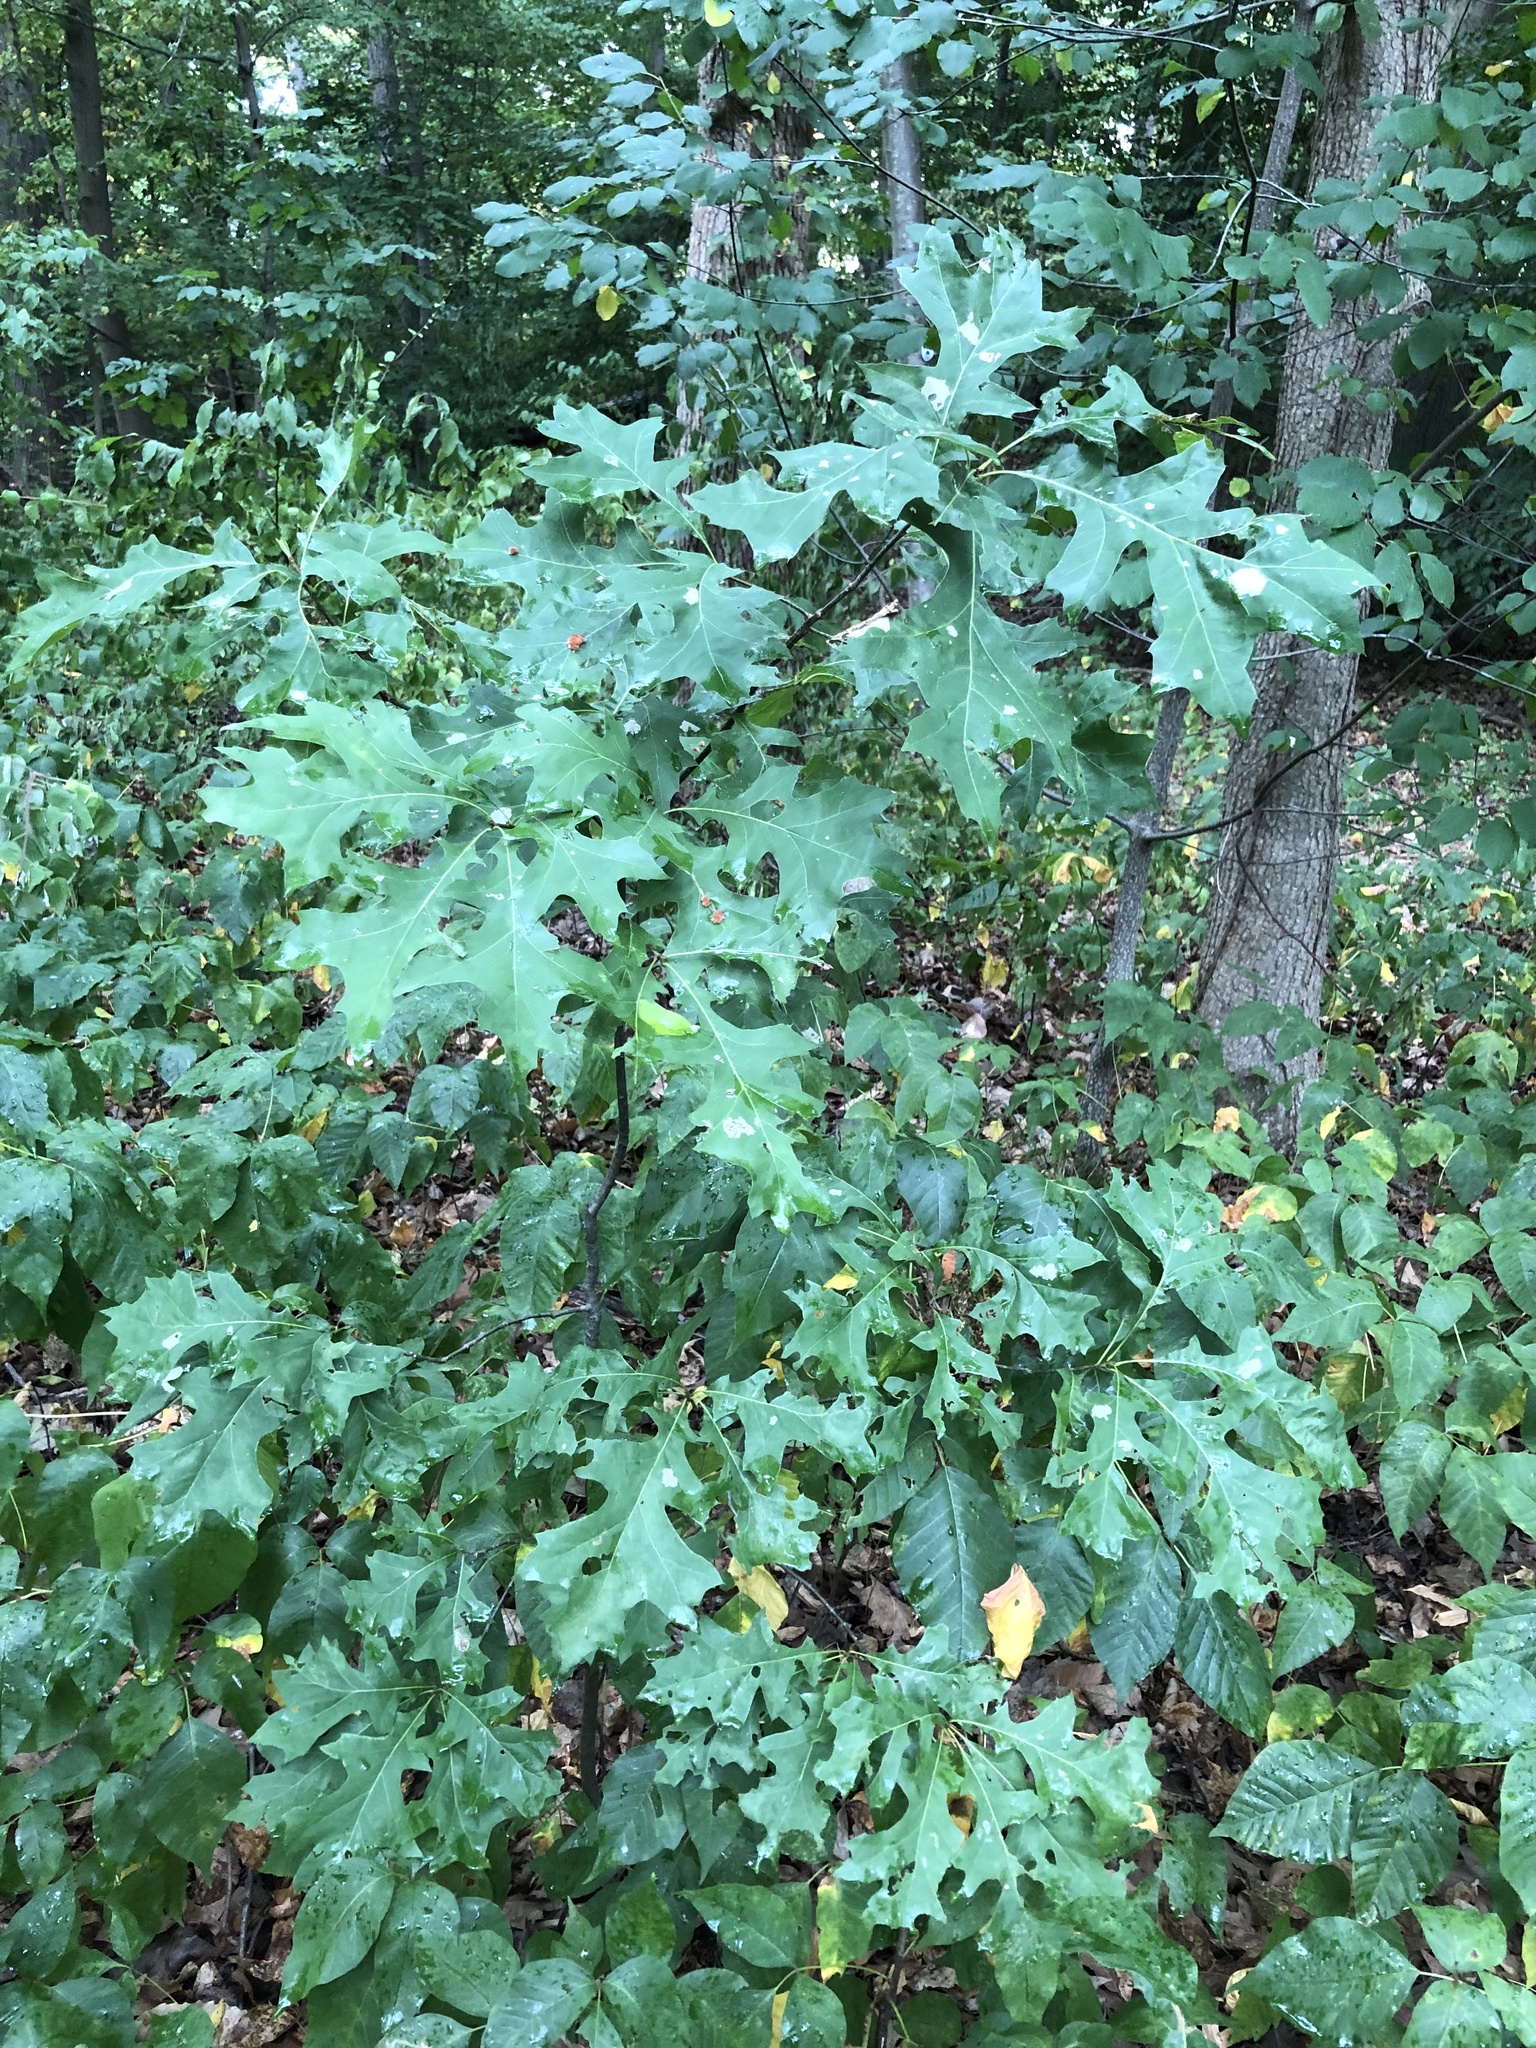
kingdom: Animalia
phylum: Arthropoda
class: Insecta
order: Hymenoptera
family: Cynipidae
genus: Callirhytis
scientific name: Callirhytis
